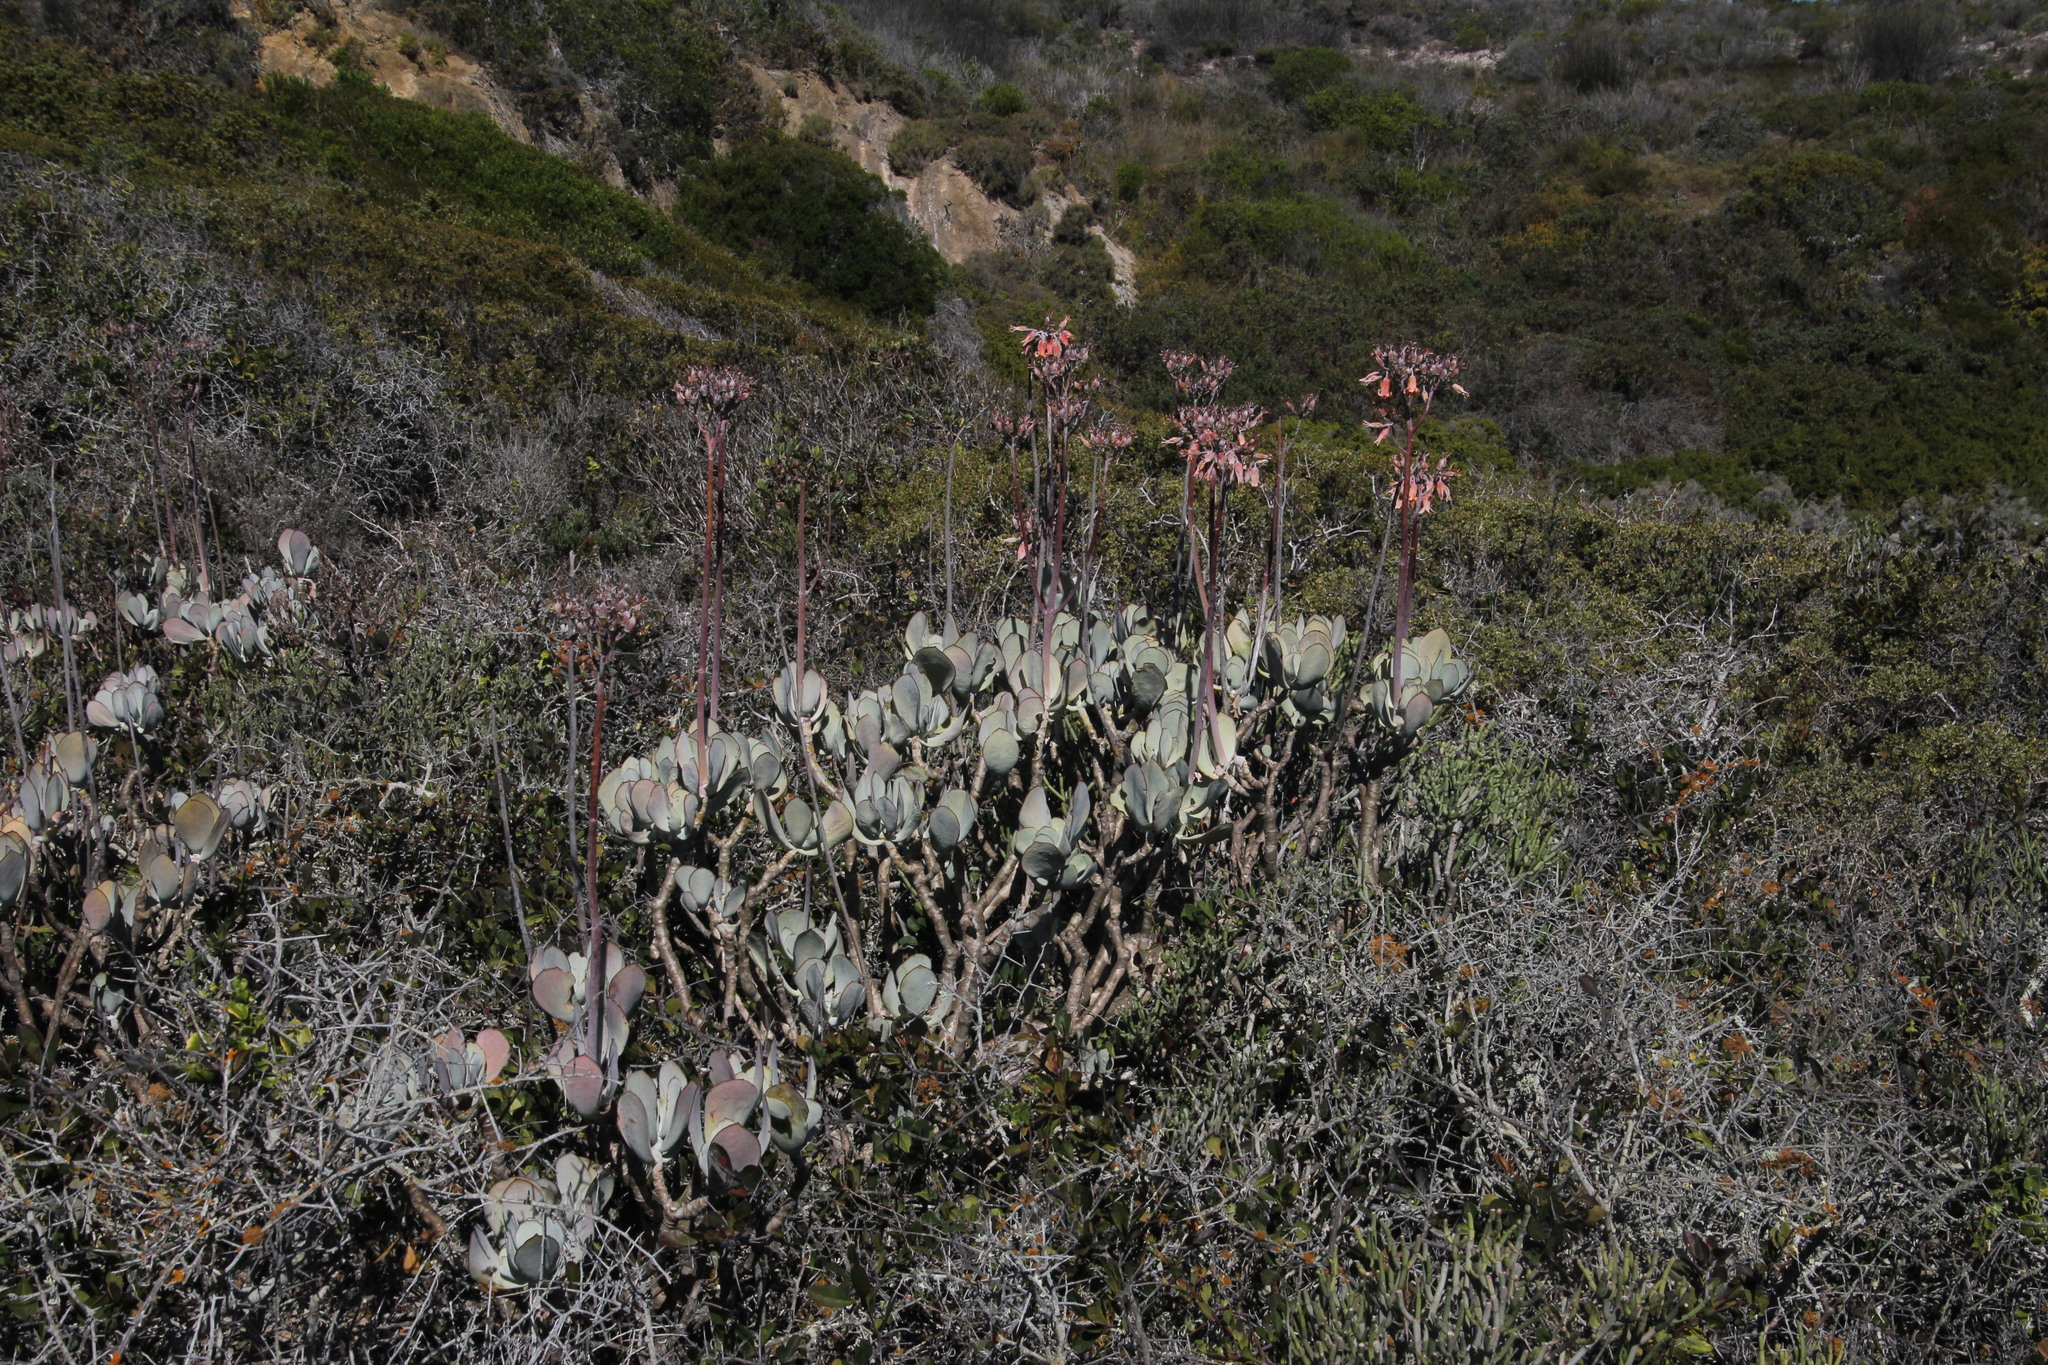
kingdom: Plantae
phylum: Tracheophyta
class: Magnoliopsida
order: Saxifragales
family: Crassulaceae
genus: Cotyledon
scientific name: Cotyledon orbiculata
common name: Pig's ear
